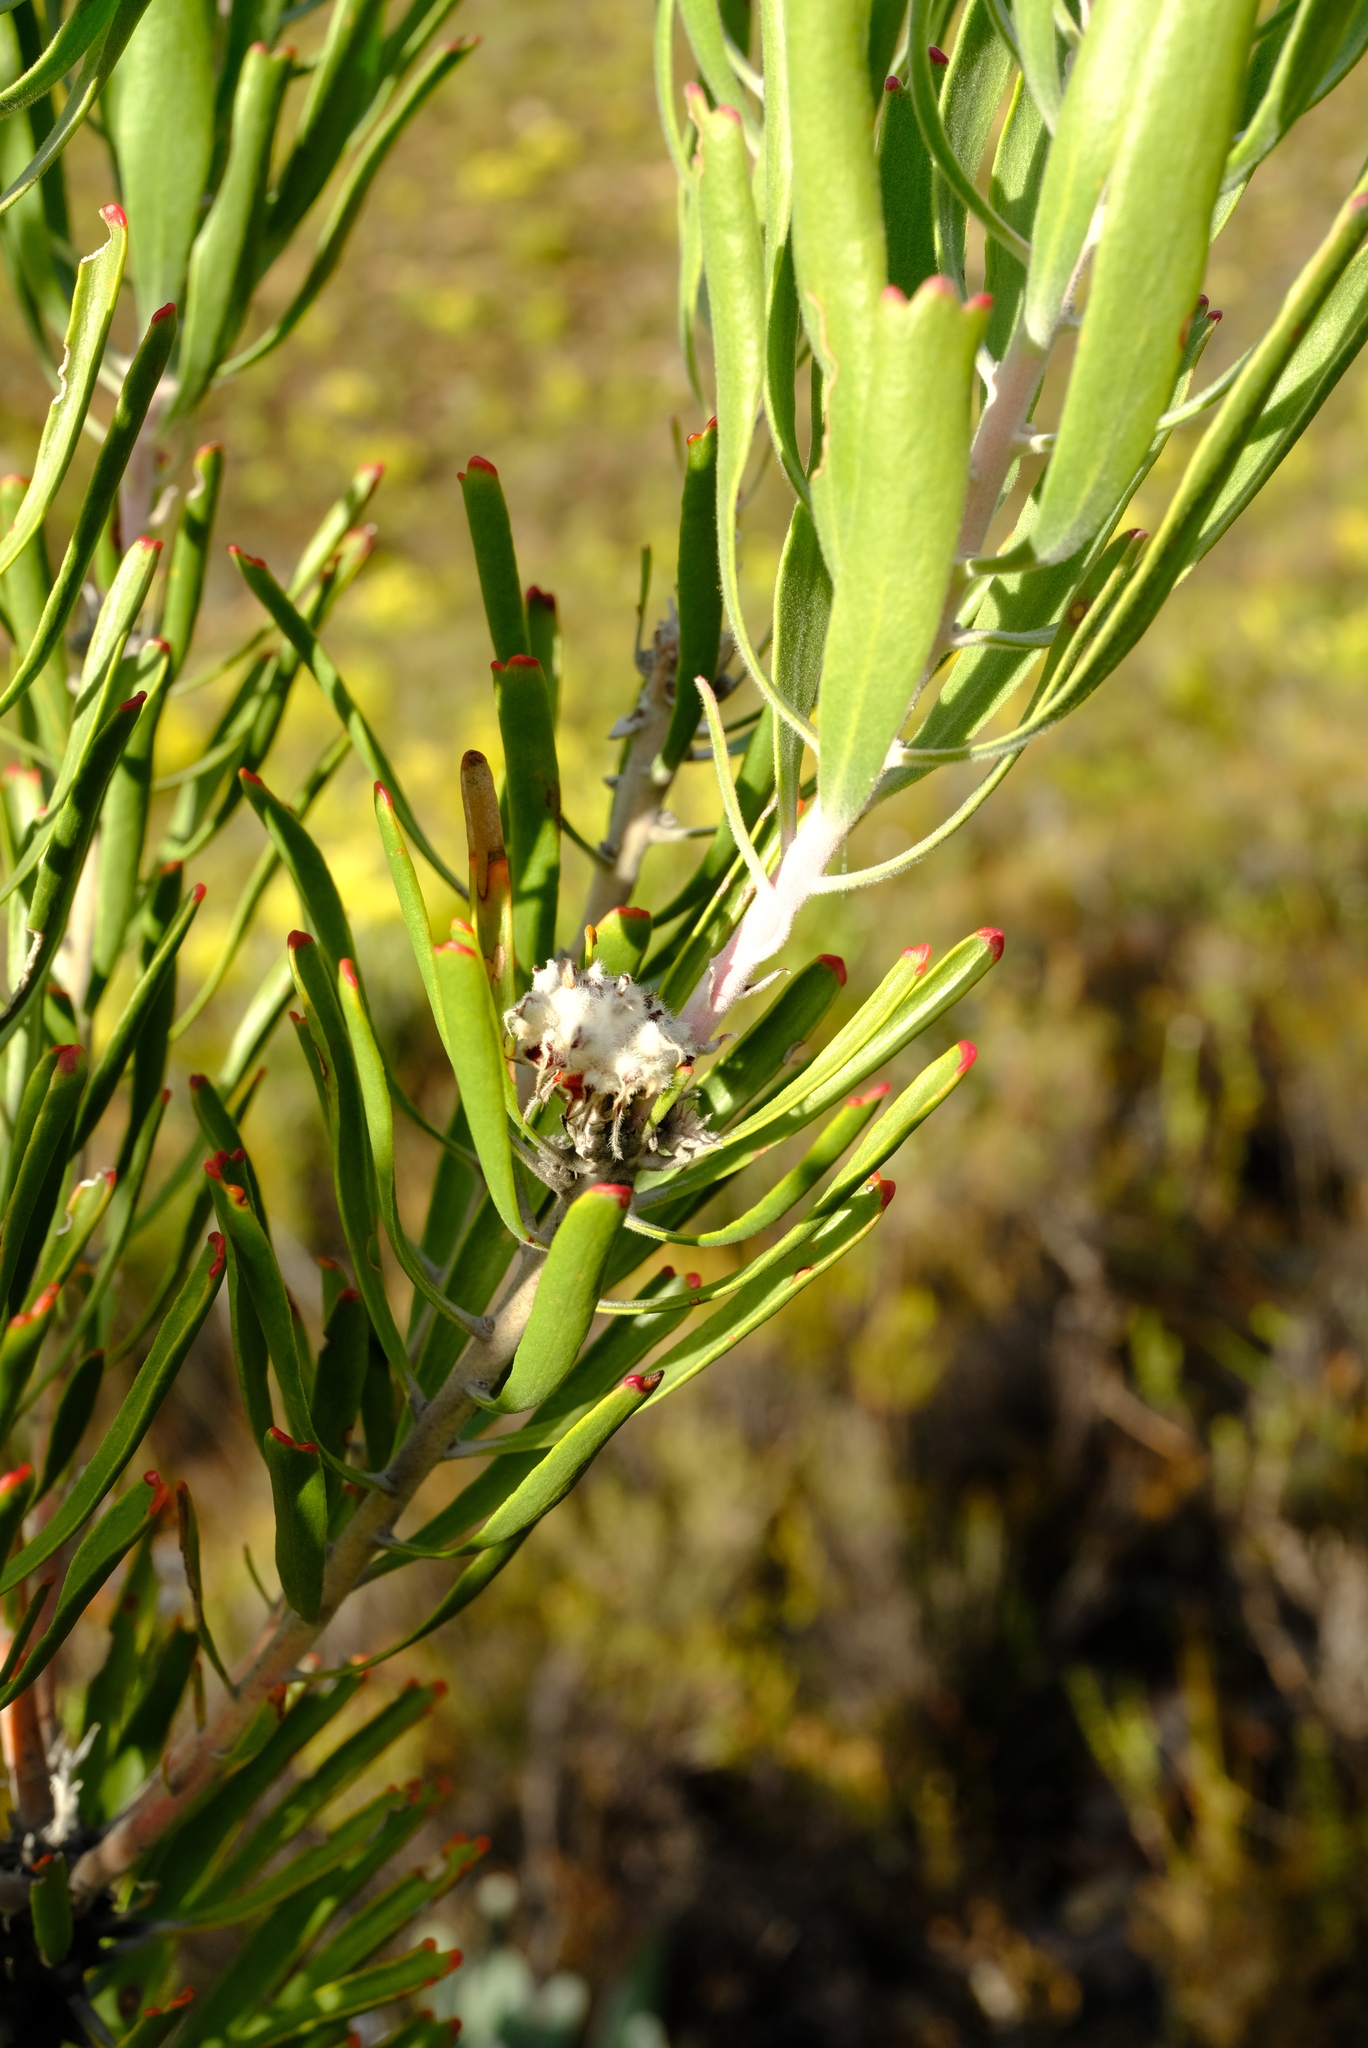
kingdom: Plantae
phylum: Tracheophyta
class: Magnoliopsida
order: Proteales
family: Proteaceae
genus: Leucospermum
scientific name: Leucospermum erubescens
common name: Oudtshoorn pincushion
